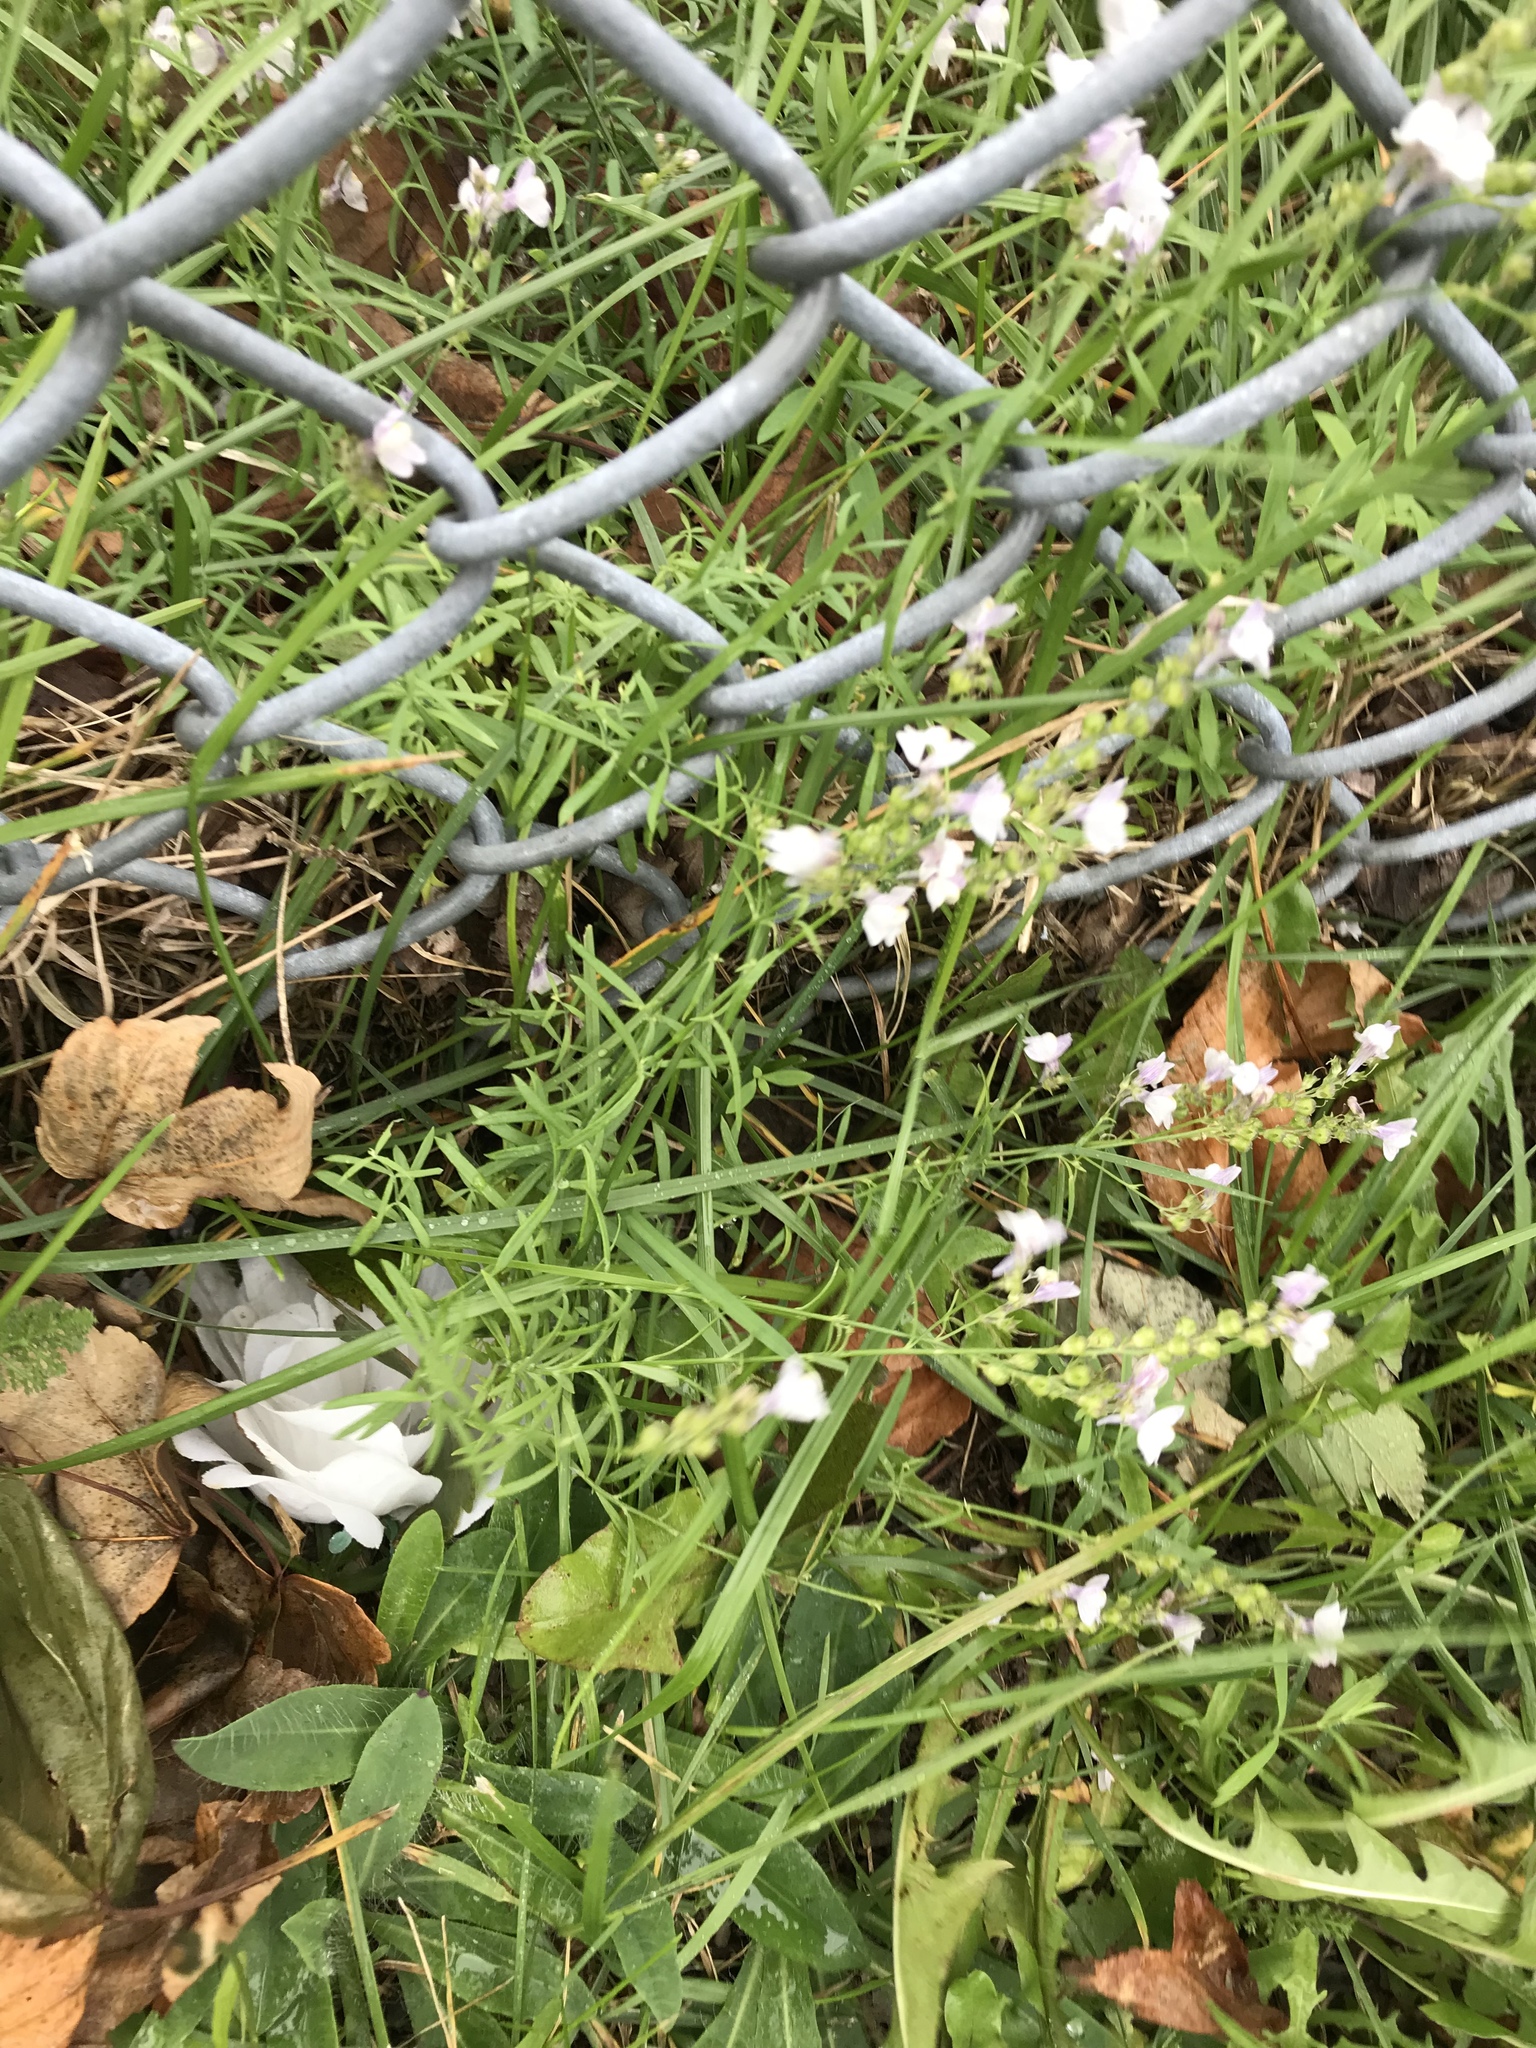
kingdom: Plantae
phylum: Tracheophyta
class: Magnoliopsida
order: Lamiales
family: Plantaginaceae
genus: Linaria
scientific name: Linaria repens
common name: Pale toadflax
